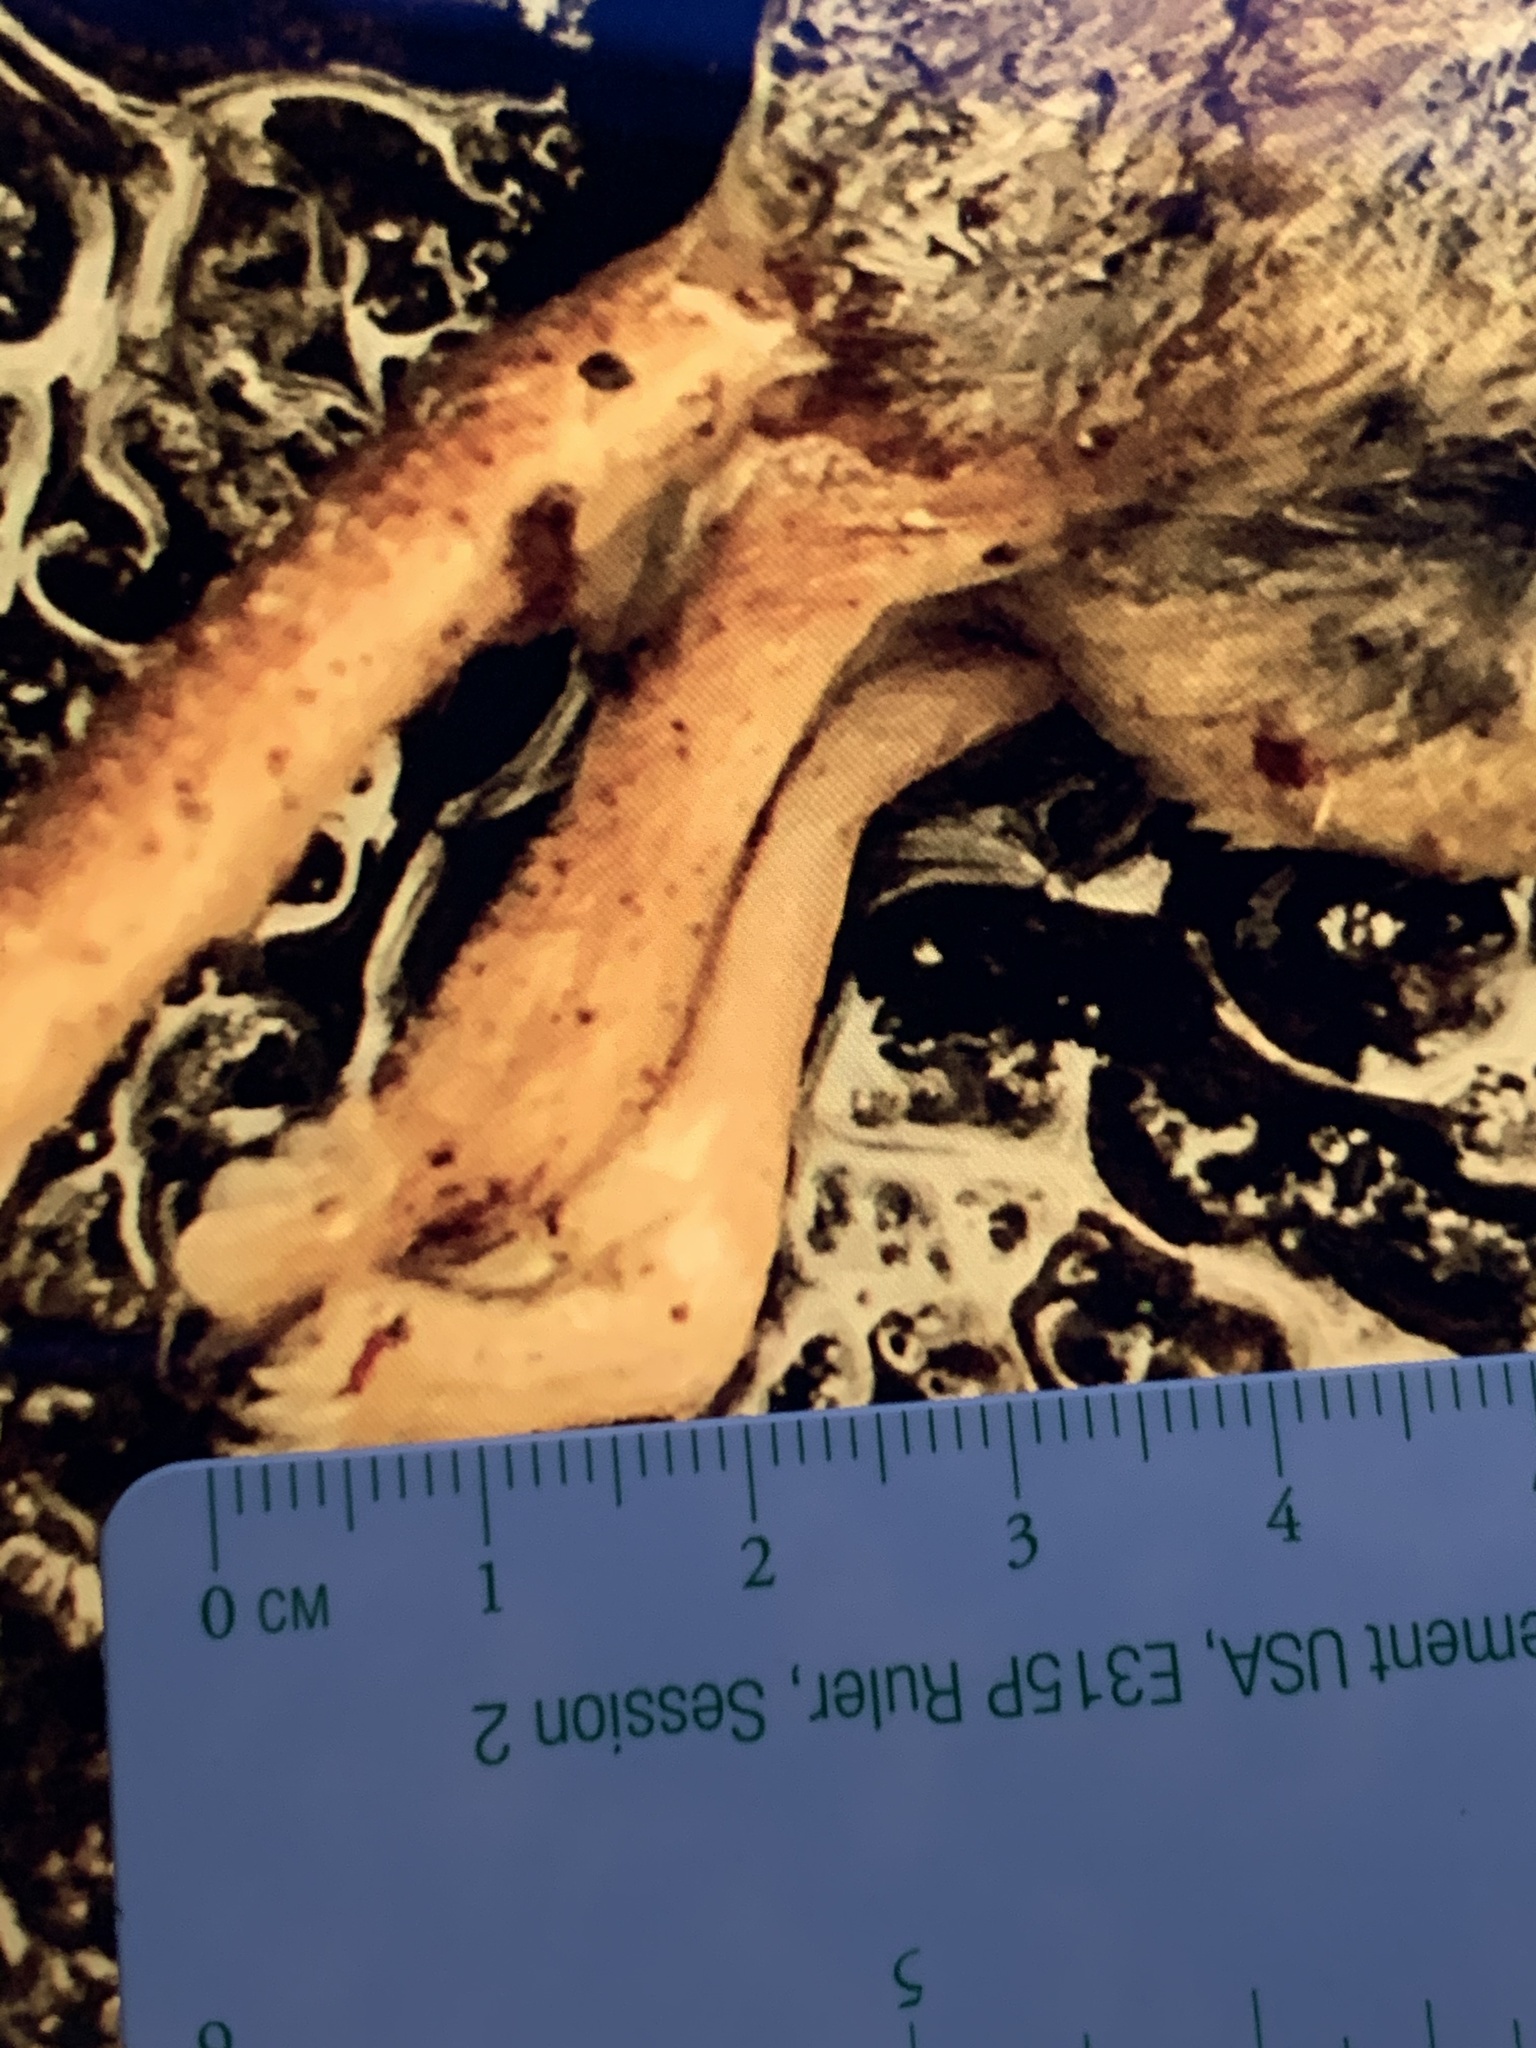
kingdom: Animalia
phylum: Chordata
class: Mammalia
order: Soricomorpha
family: Soricidae
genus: Sorex
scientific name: Sorex cinereus
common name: Cinereus shrew
